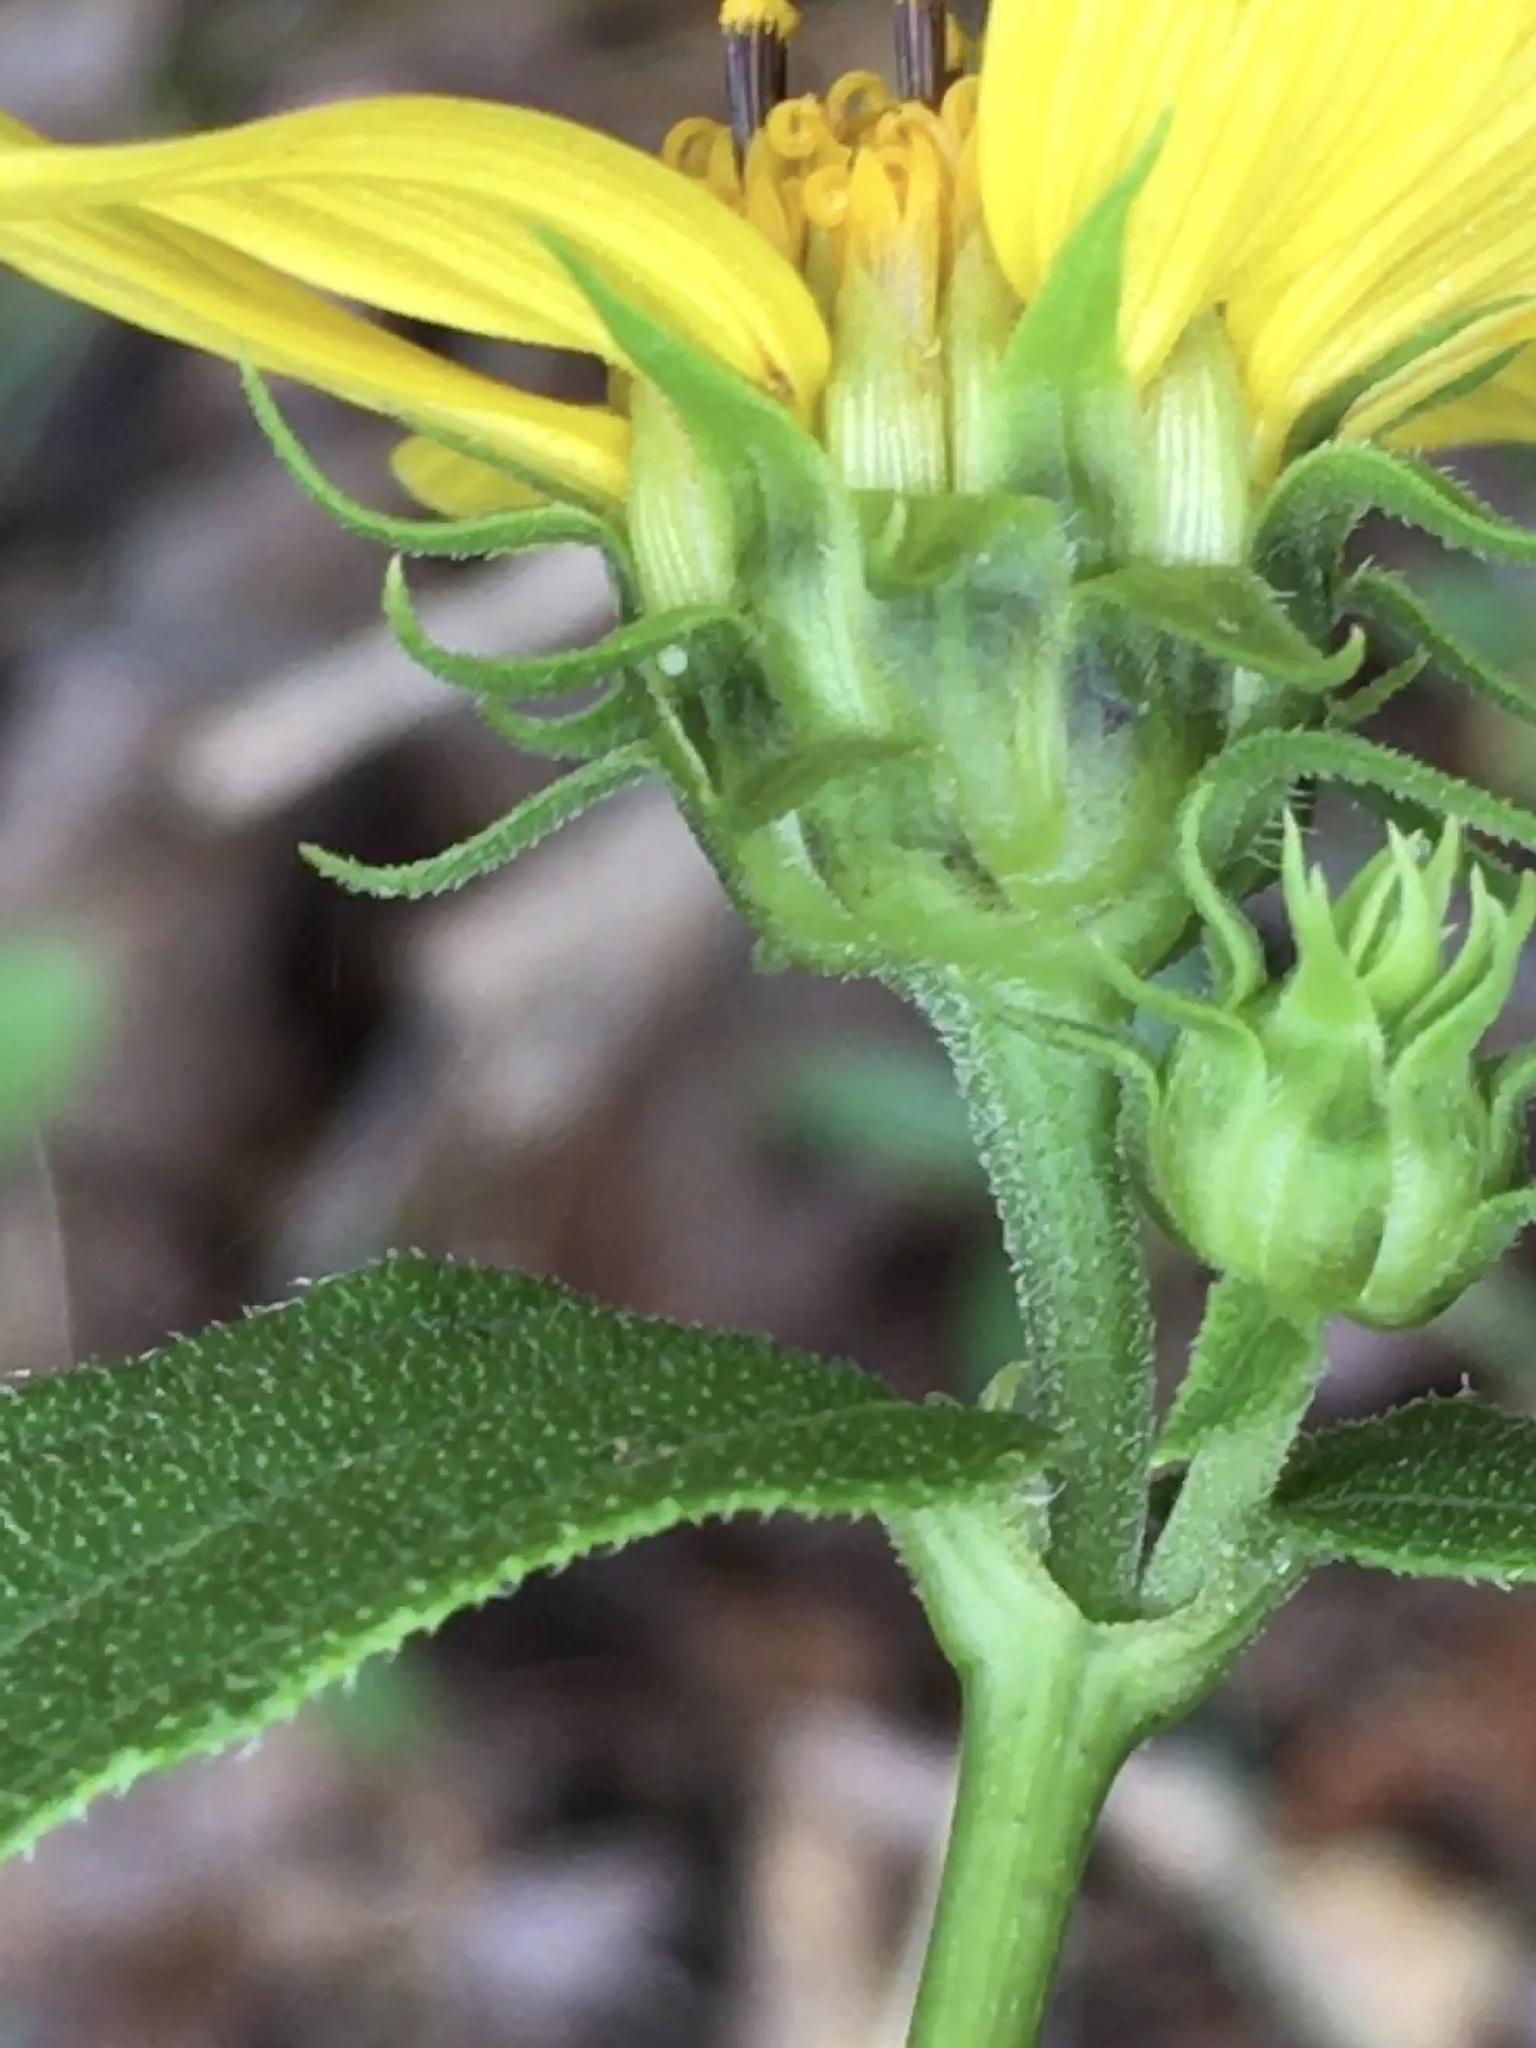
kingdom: Plantae
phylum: Tracheophyta
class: Magnoliopsida
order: Asterales
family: Asteraceae
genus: Helianthus
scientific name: Helianthus divaricatus
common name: Divergent sunflower
